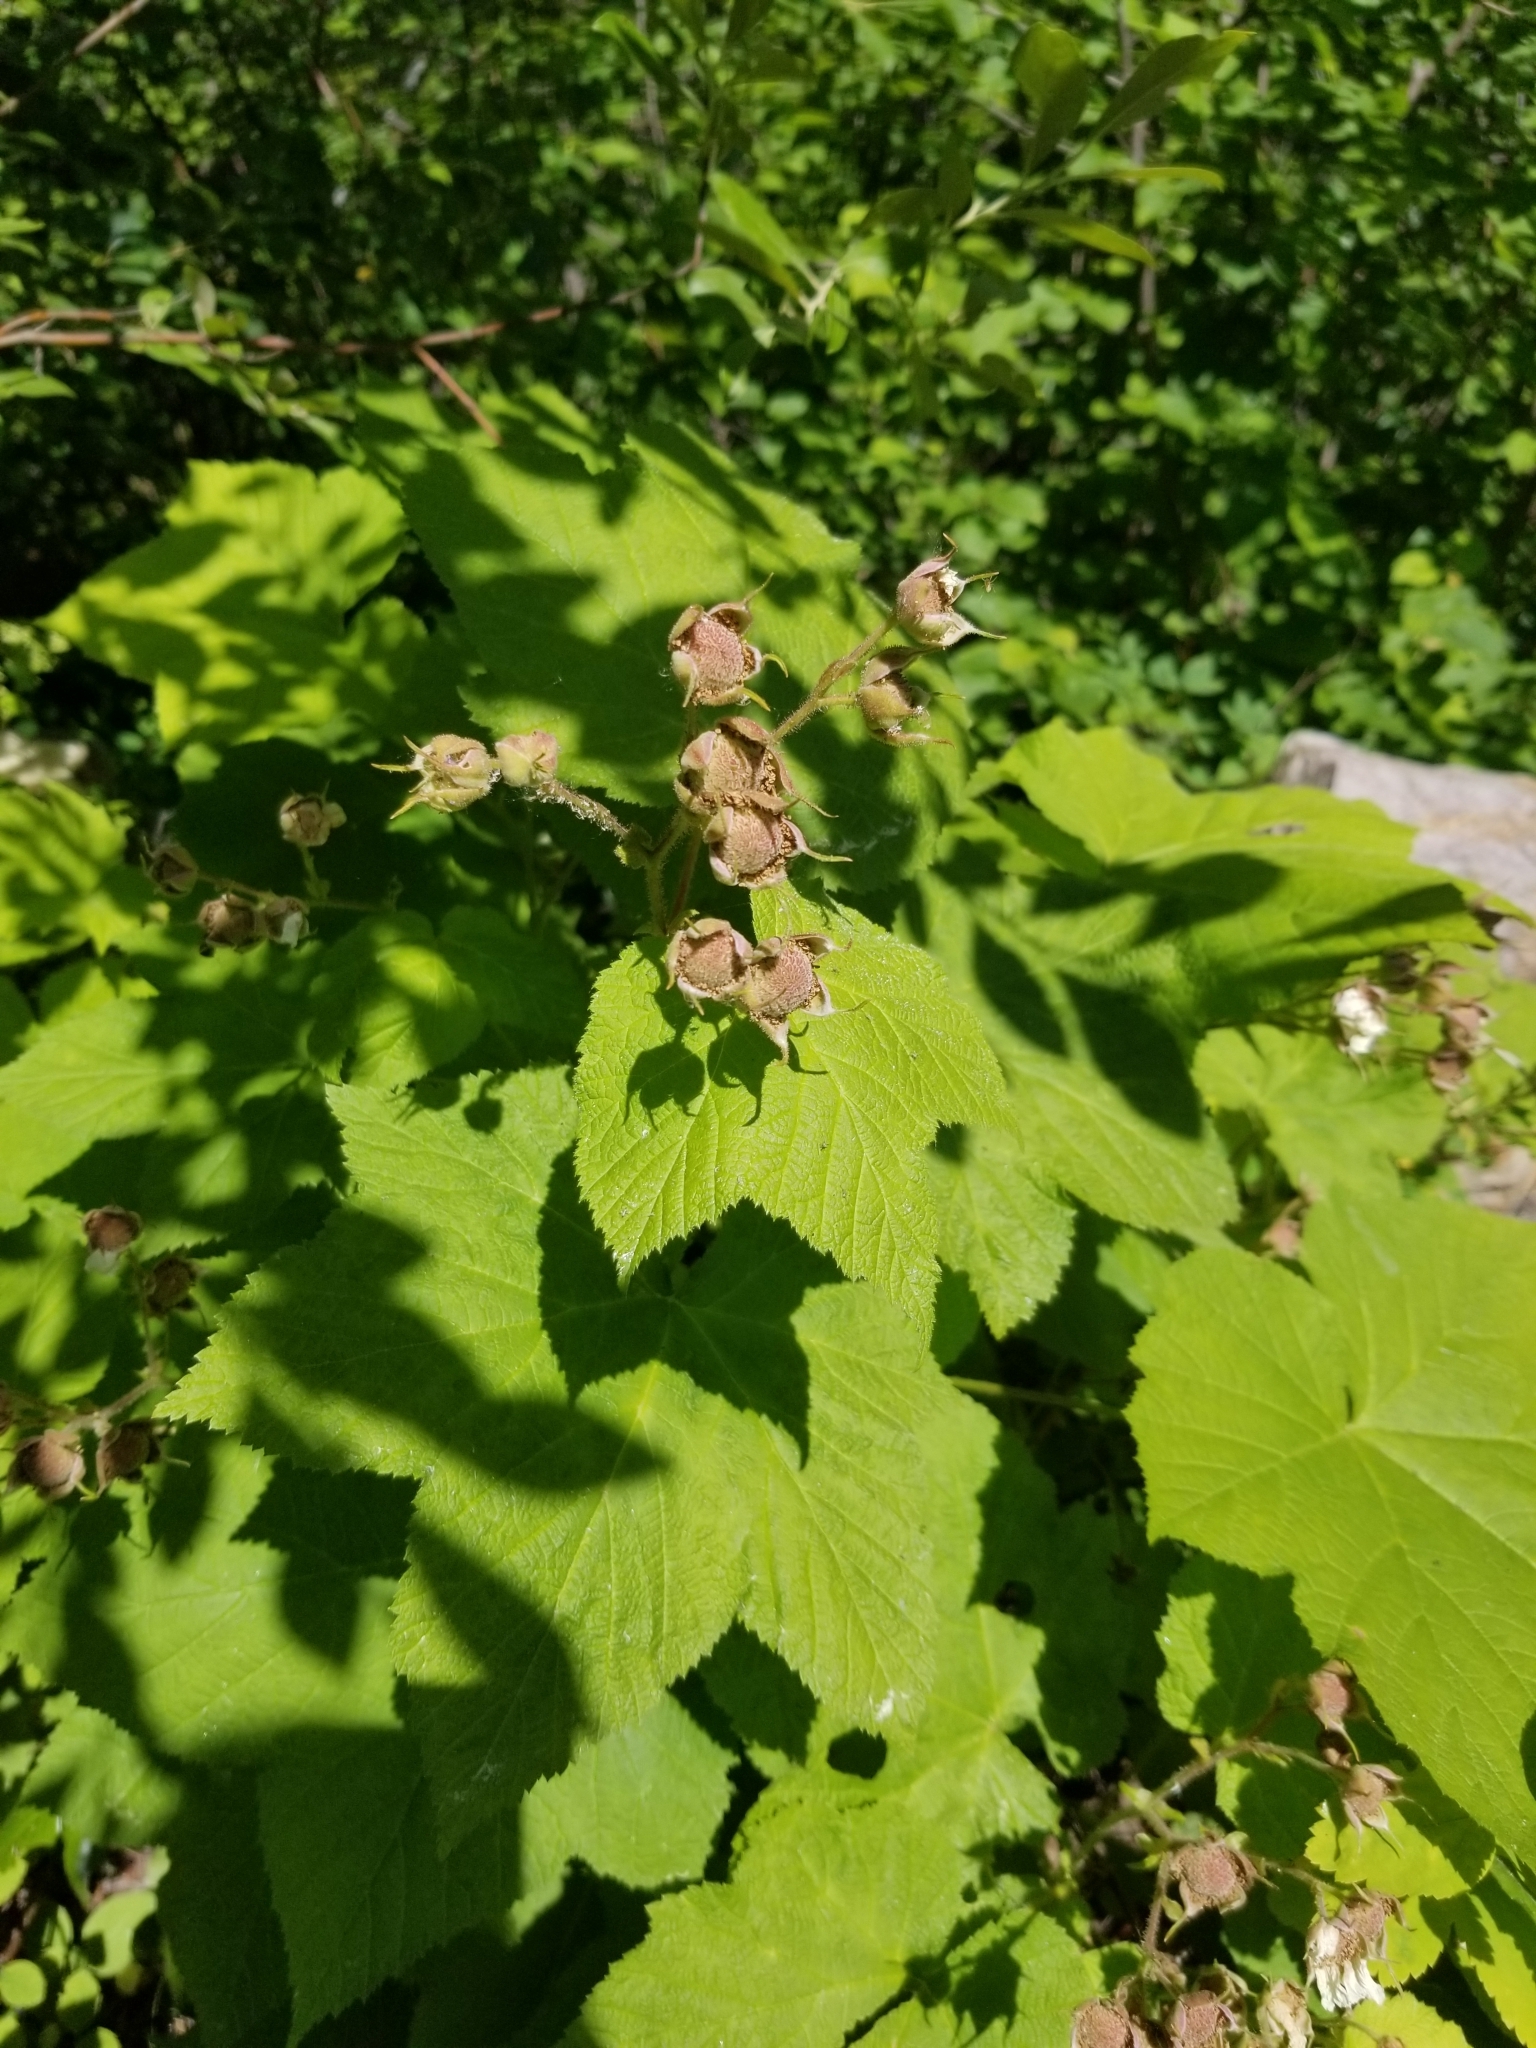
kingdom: Plantae
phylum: Tracheophyta
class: Magnoliopsida
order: Rosales
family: Rosaceae
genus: Rubus
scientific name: Rubus parviflorus
